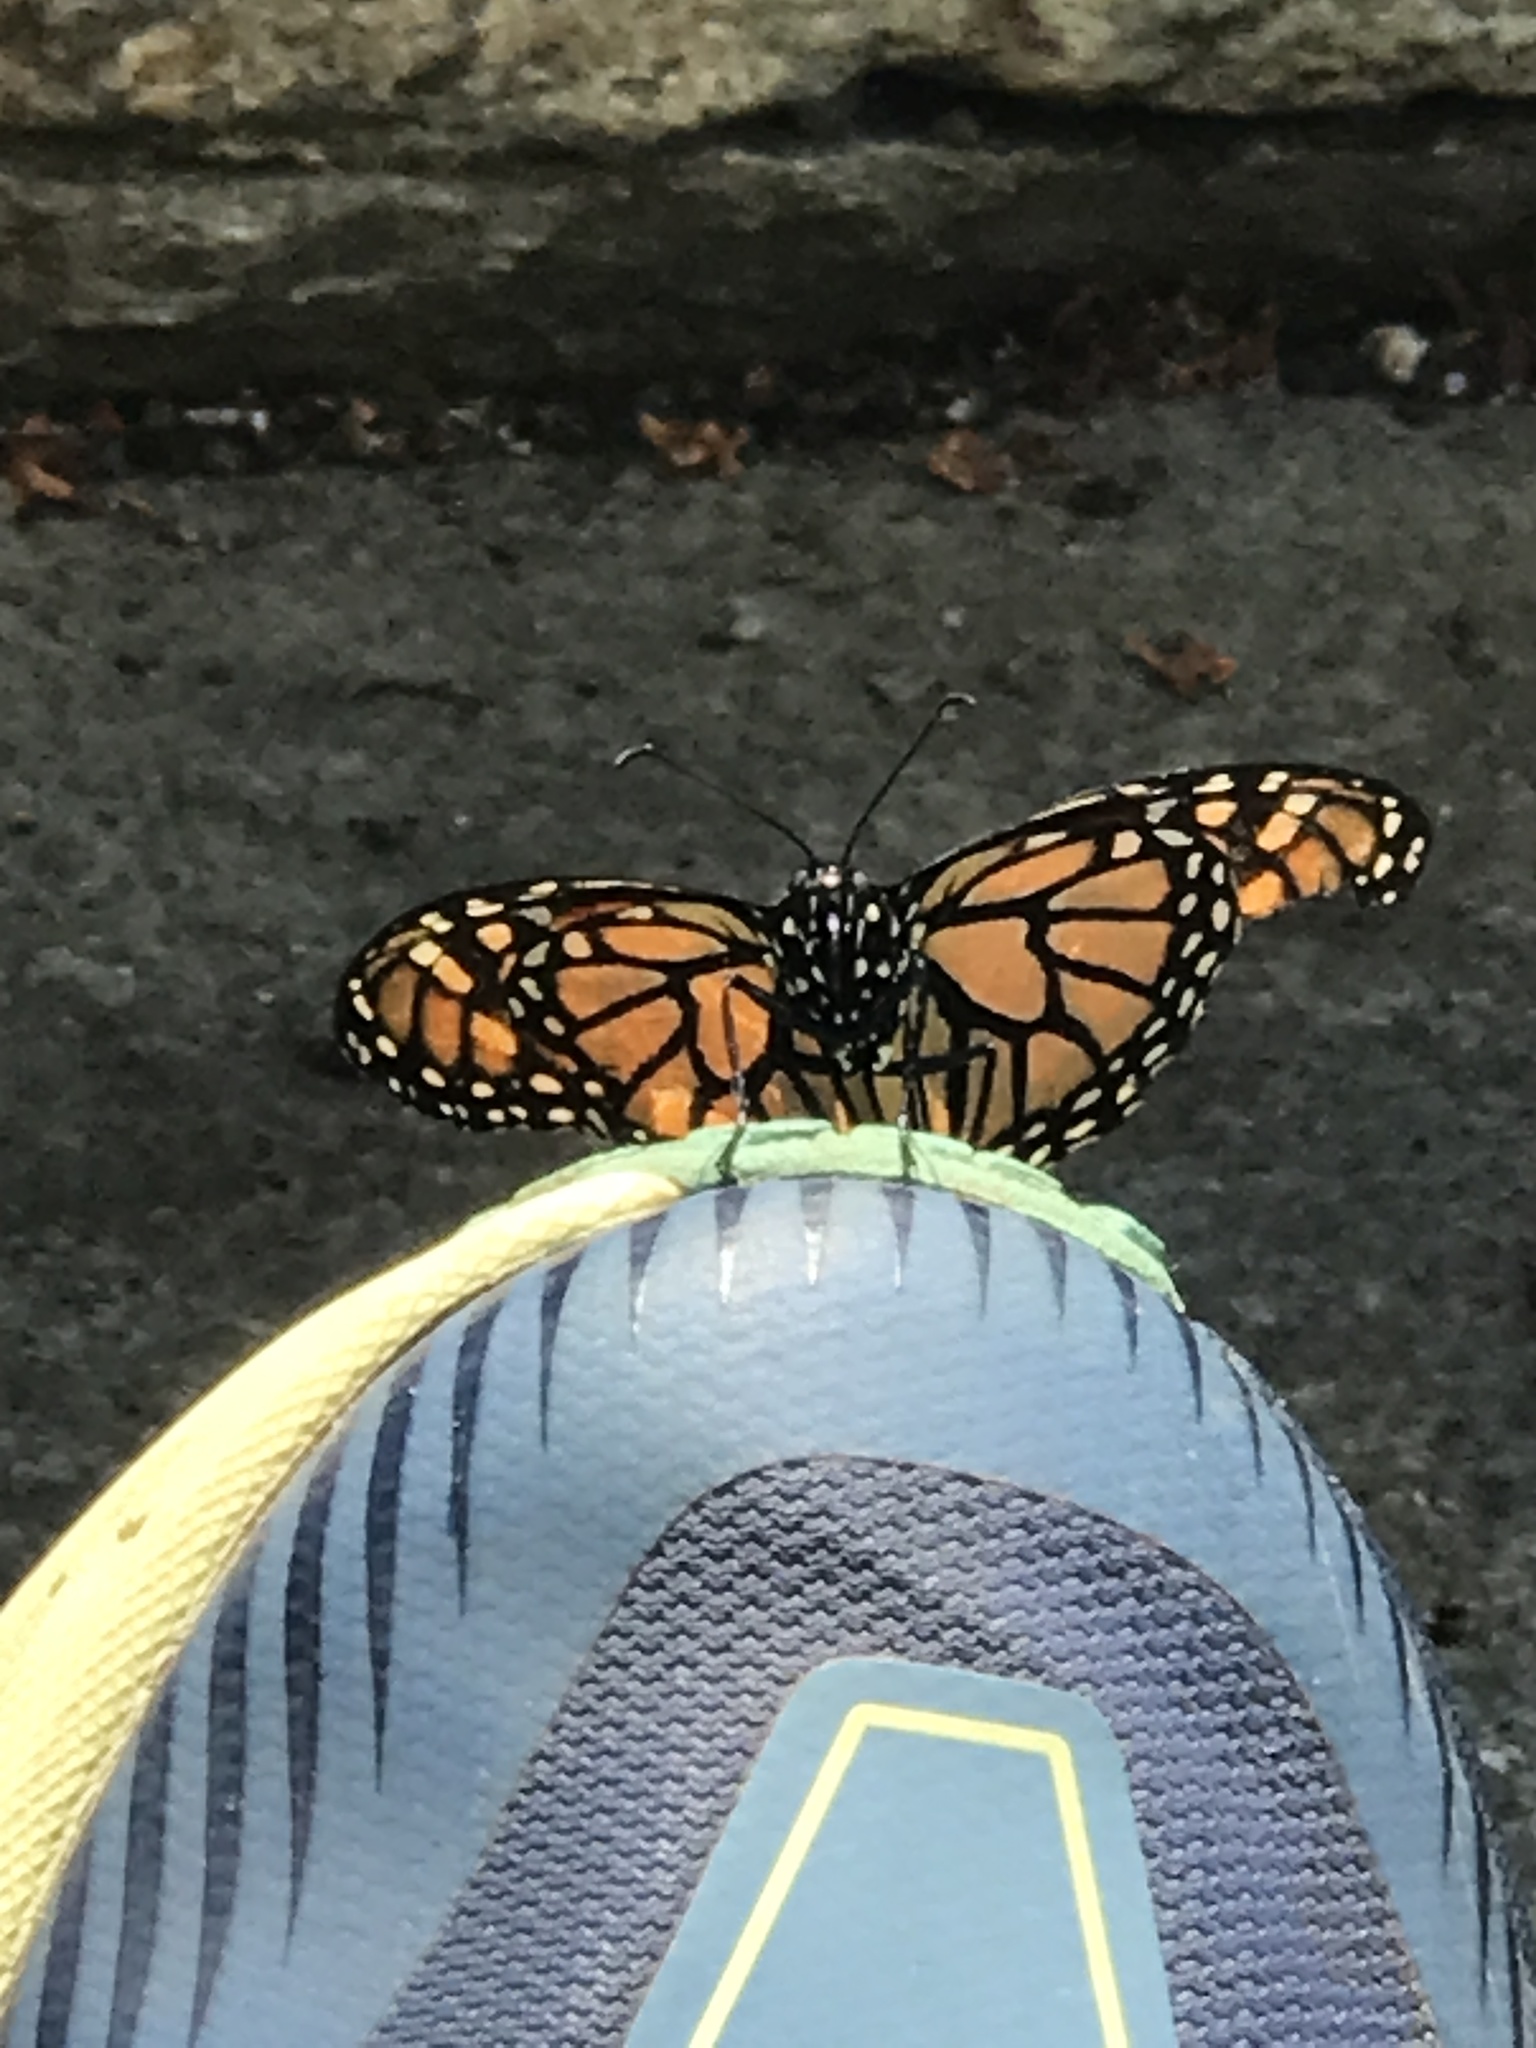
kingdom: Animalia
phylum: Arthropoda
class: Insecta
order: Lepidoptera
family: Nymphalidae
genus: Danaus
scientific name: Danaus plexippus
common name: Monarch
